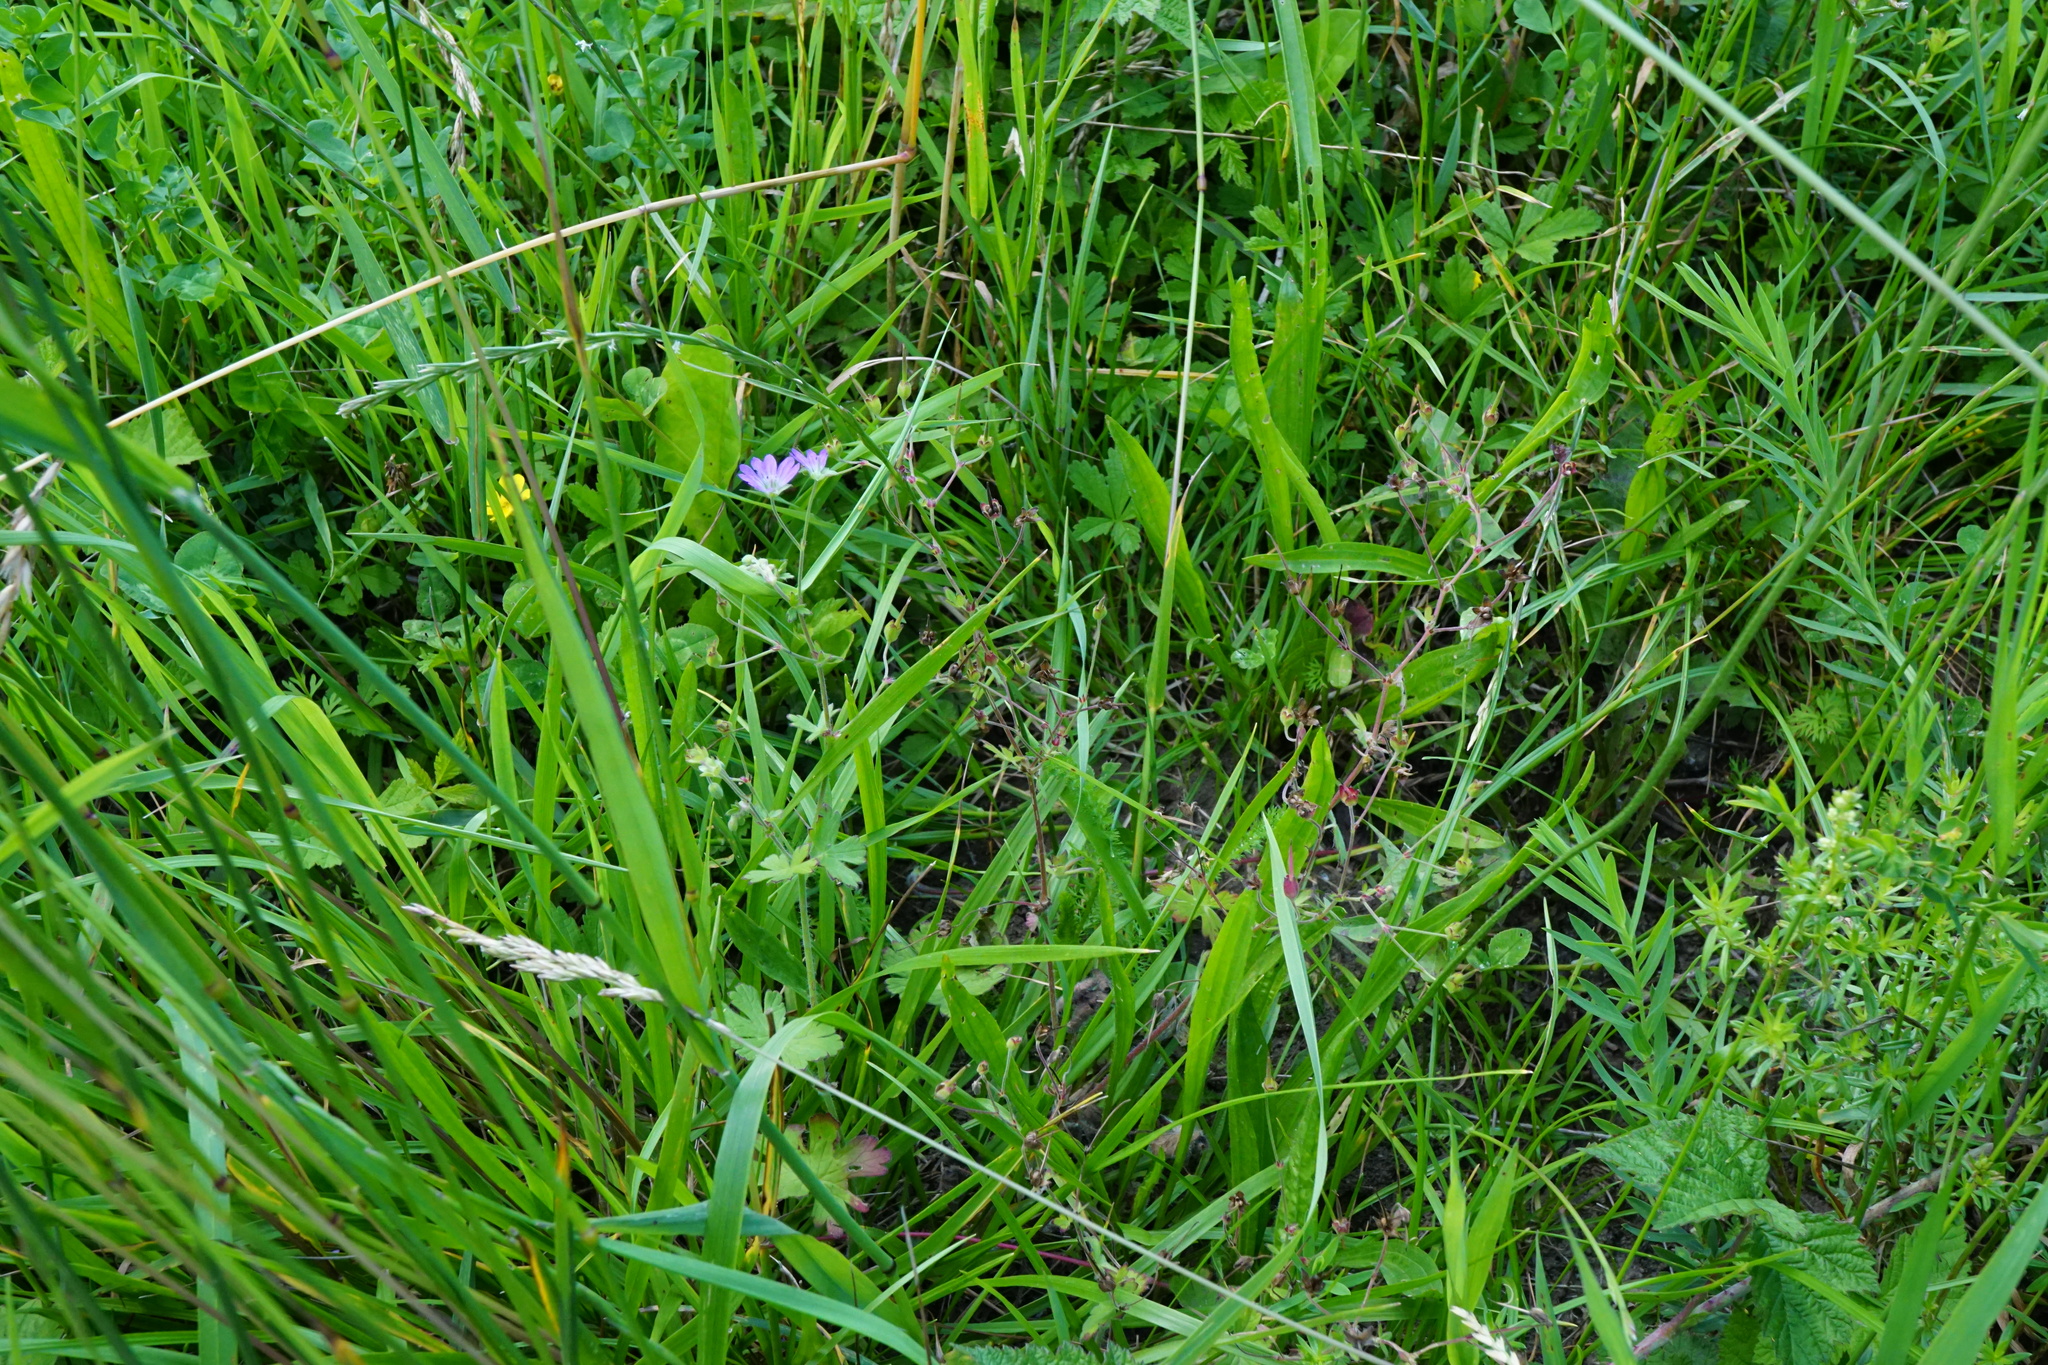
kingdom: Plantae
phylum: Tracheophyta
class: Magnoliopsida
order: Geraniales
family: Geraniaceae
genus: Geranium
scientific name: Geranium pyrenaicum
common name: Hedgerow crane's-bill
